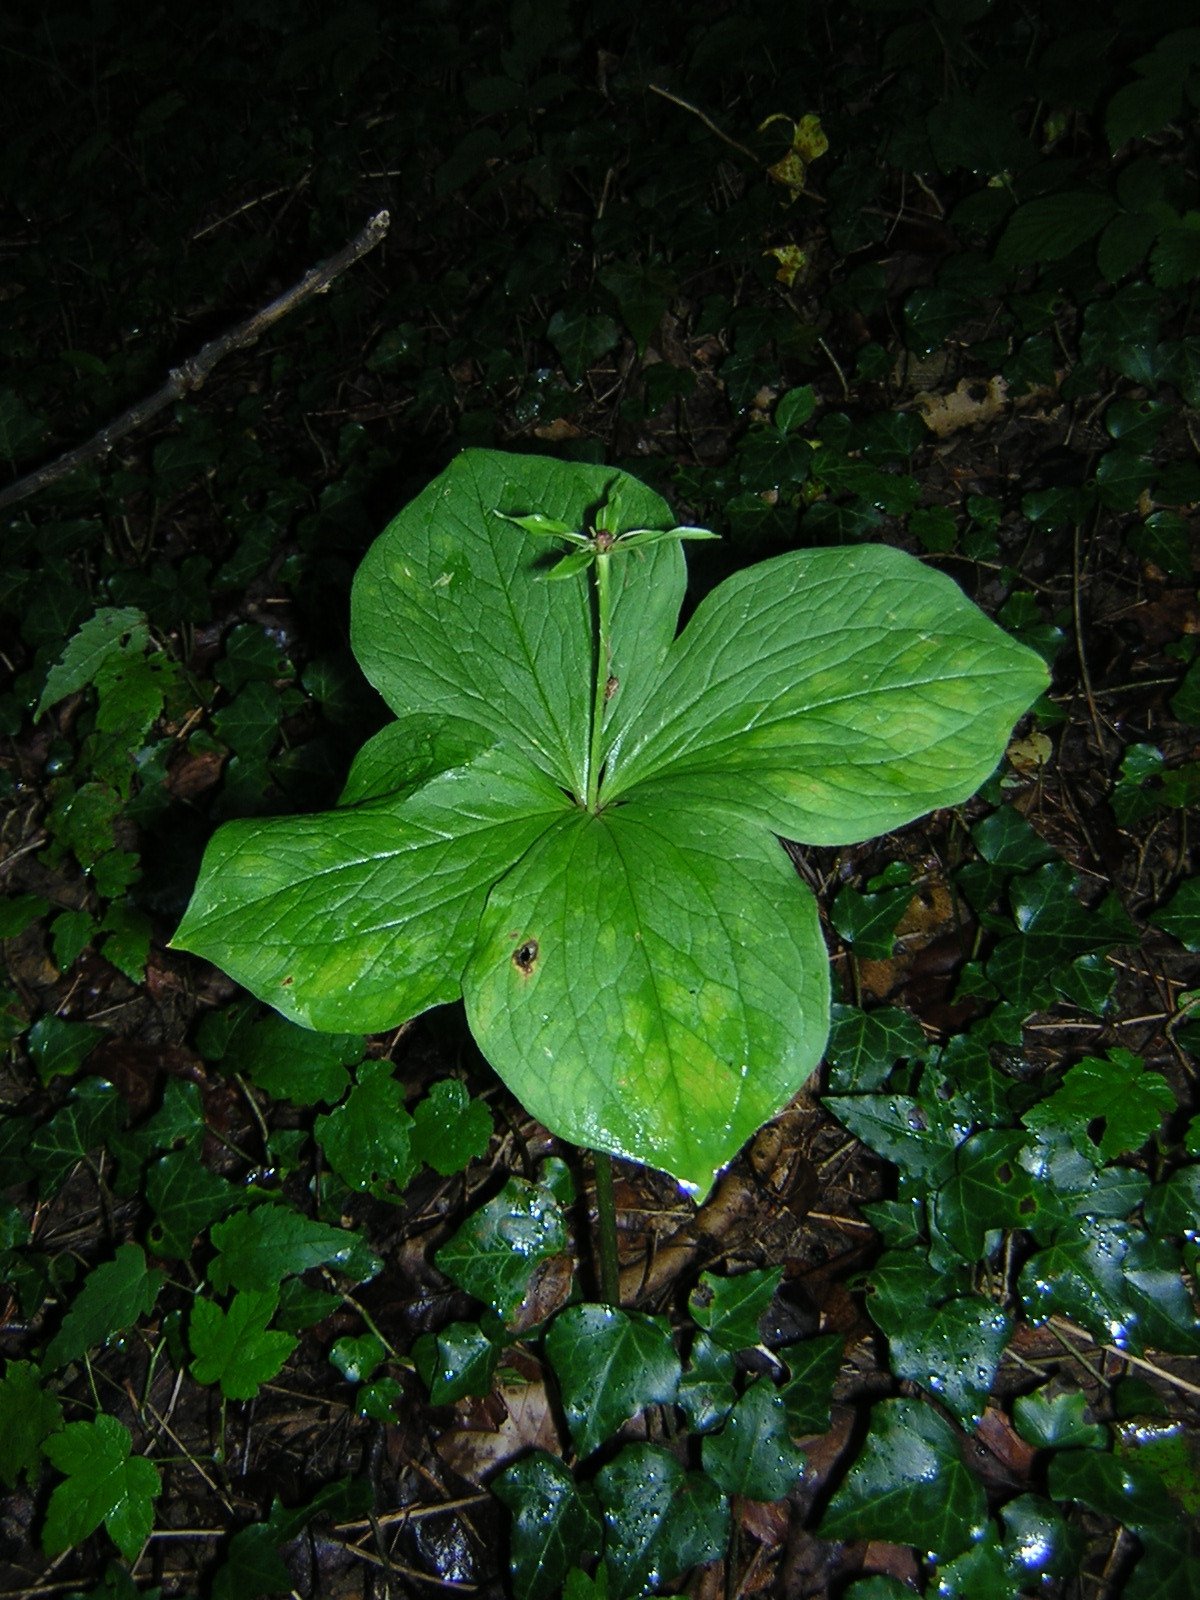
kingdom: Plantae
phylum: Tracheophyta
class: Liliopsida
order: Liliales
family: Melanthiaceae
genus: Paris
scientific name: Paris quadrifolia
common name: Herb-paris
